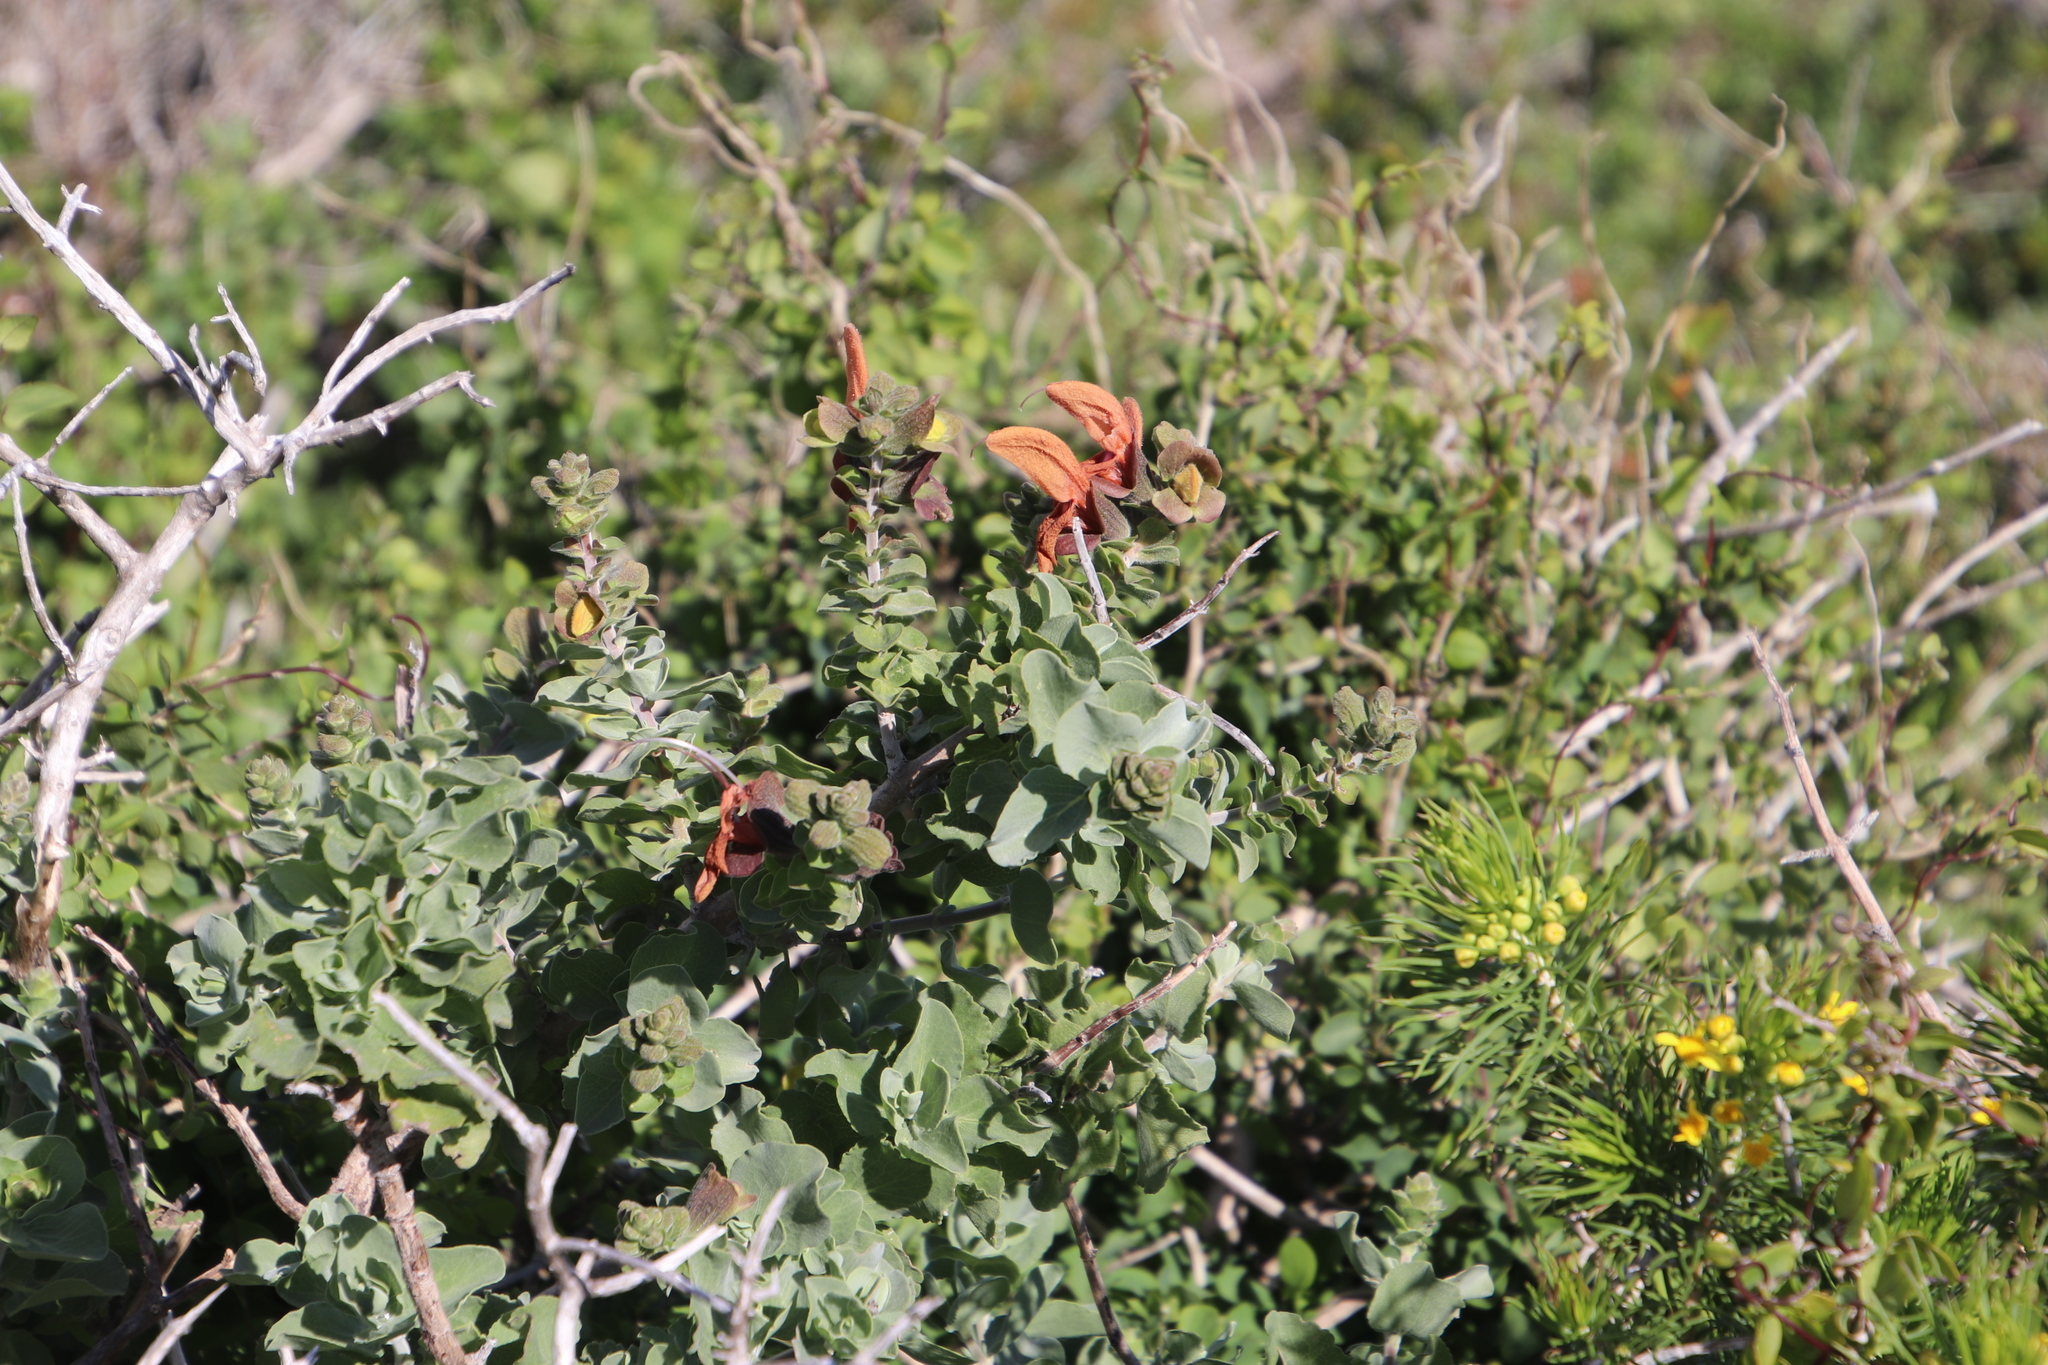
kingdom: Plantae
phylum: Tracheophyta
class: Magnoliopsida
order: Lamiales
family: Lamiaceae
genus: Salvia
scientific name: Salvia lanceolata
